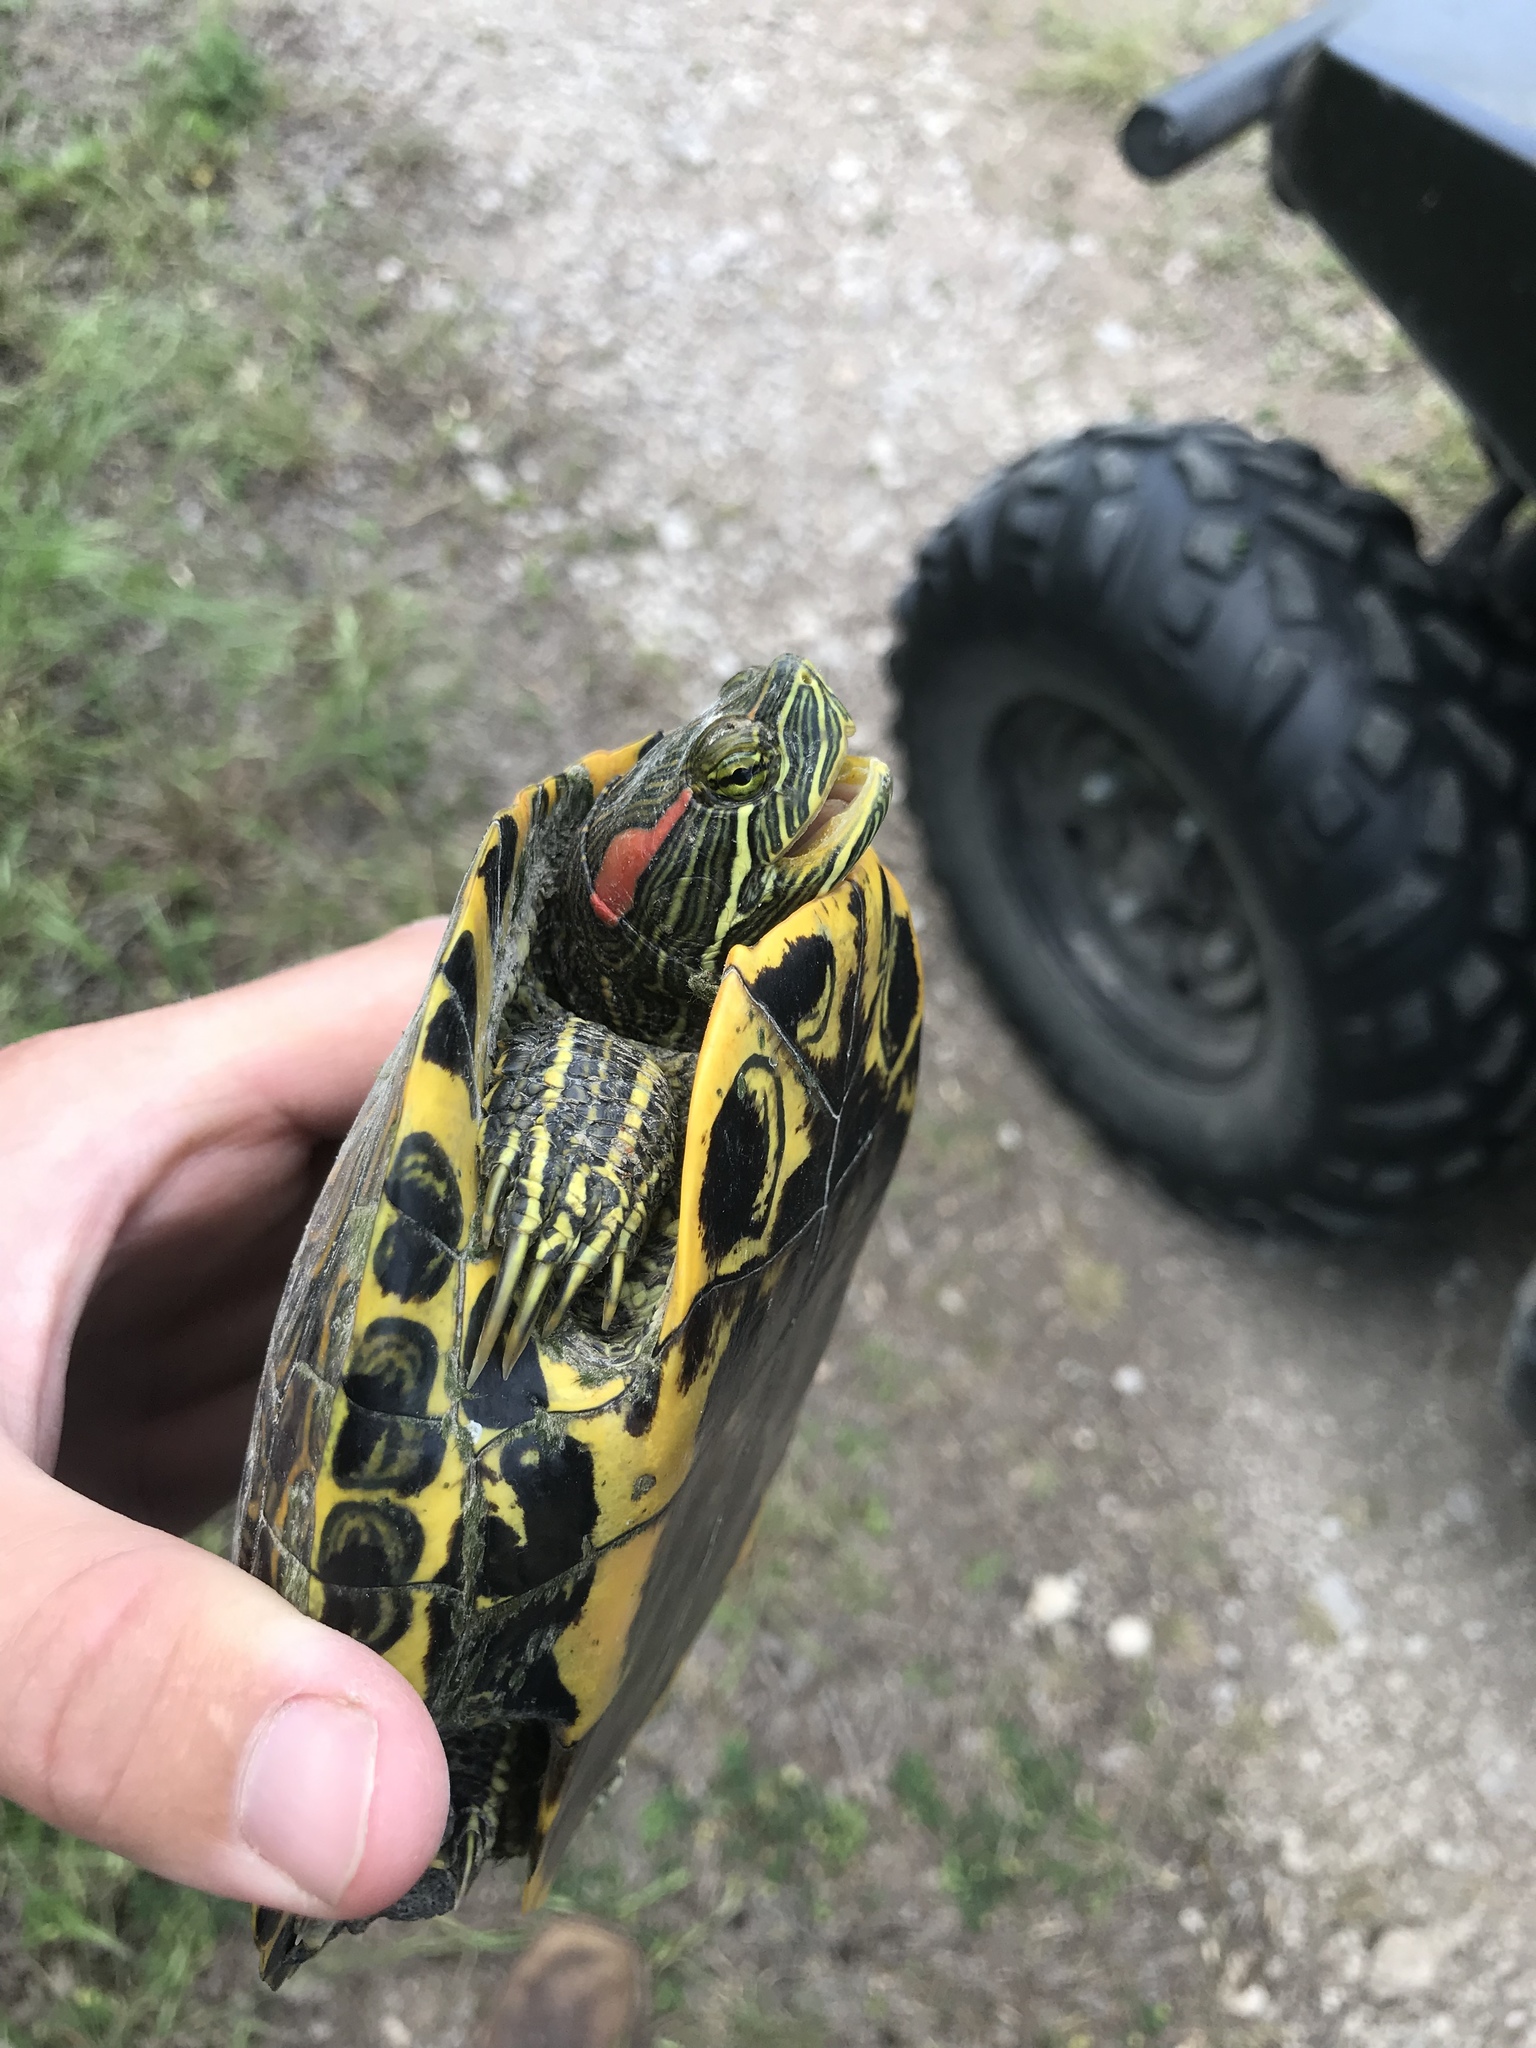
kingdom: Animalia
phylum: Chordata
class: Testudines
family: Emydidae
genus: Trachemys
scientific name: Trachemys scripta
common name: Slider
